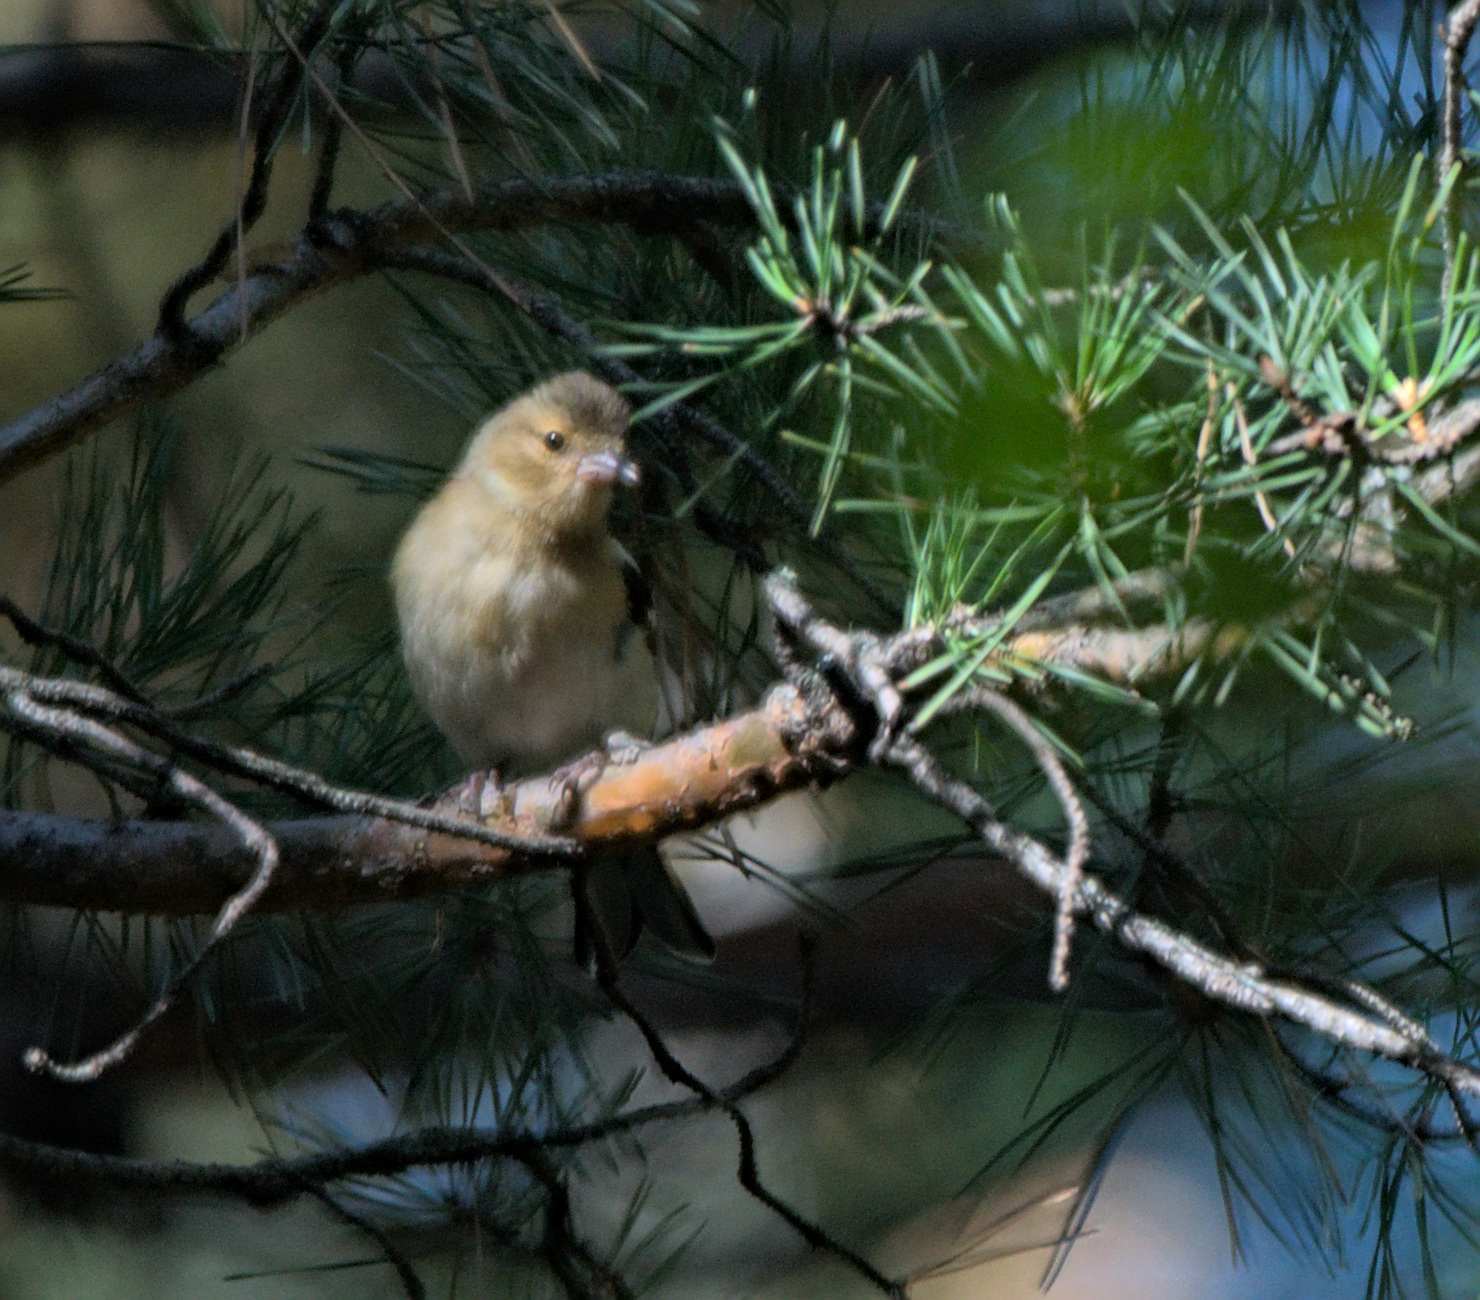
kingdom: Animalia
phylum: Chordata
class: Aves
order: Passeriformes
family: Fringillidae
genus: Fringilla
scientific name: Fringilla coelebs
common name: Common chaffinch
